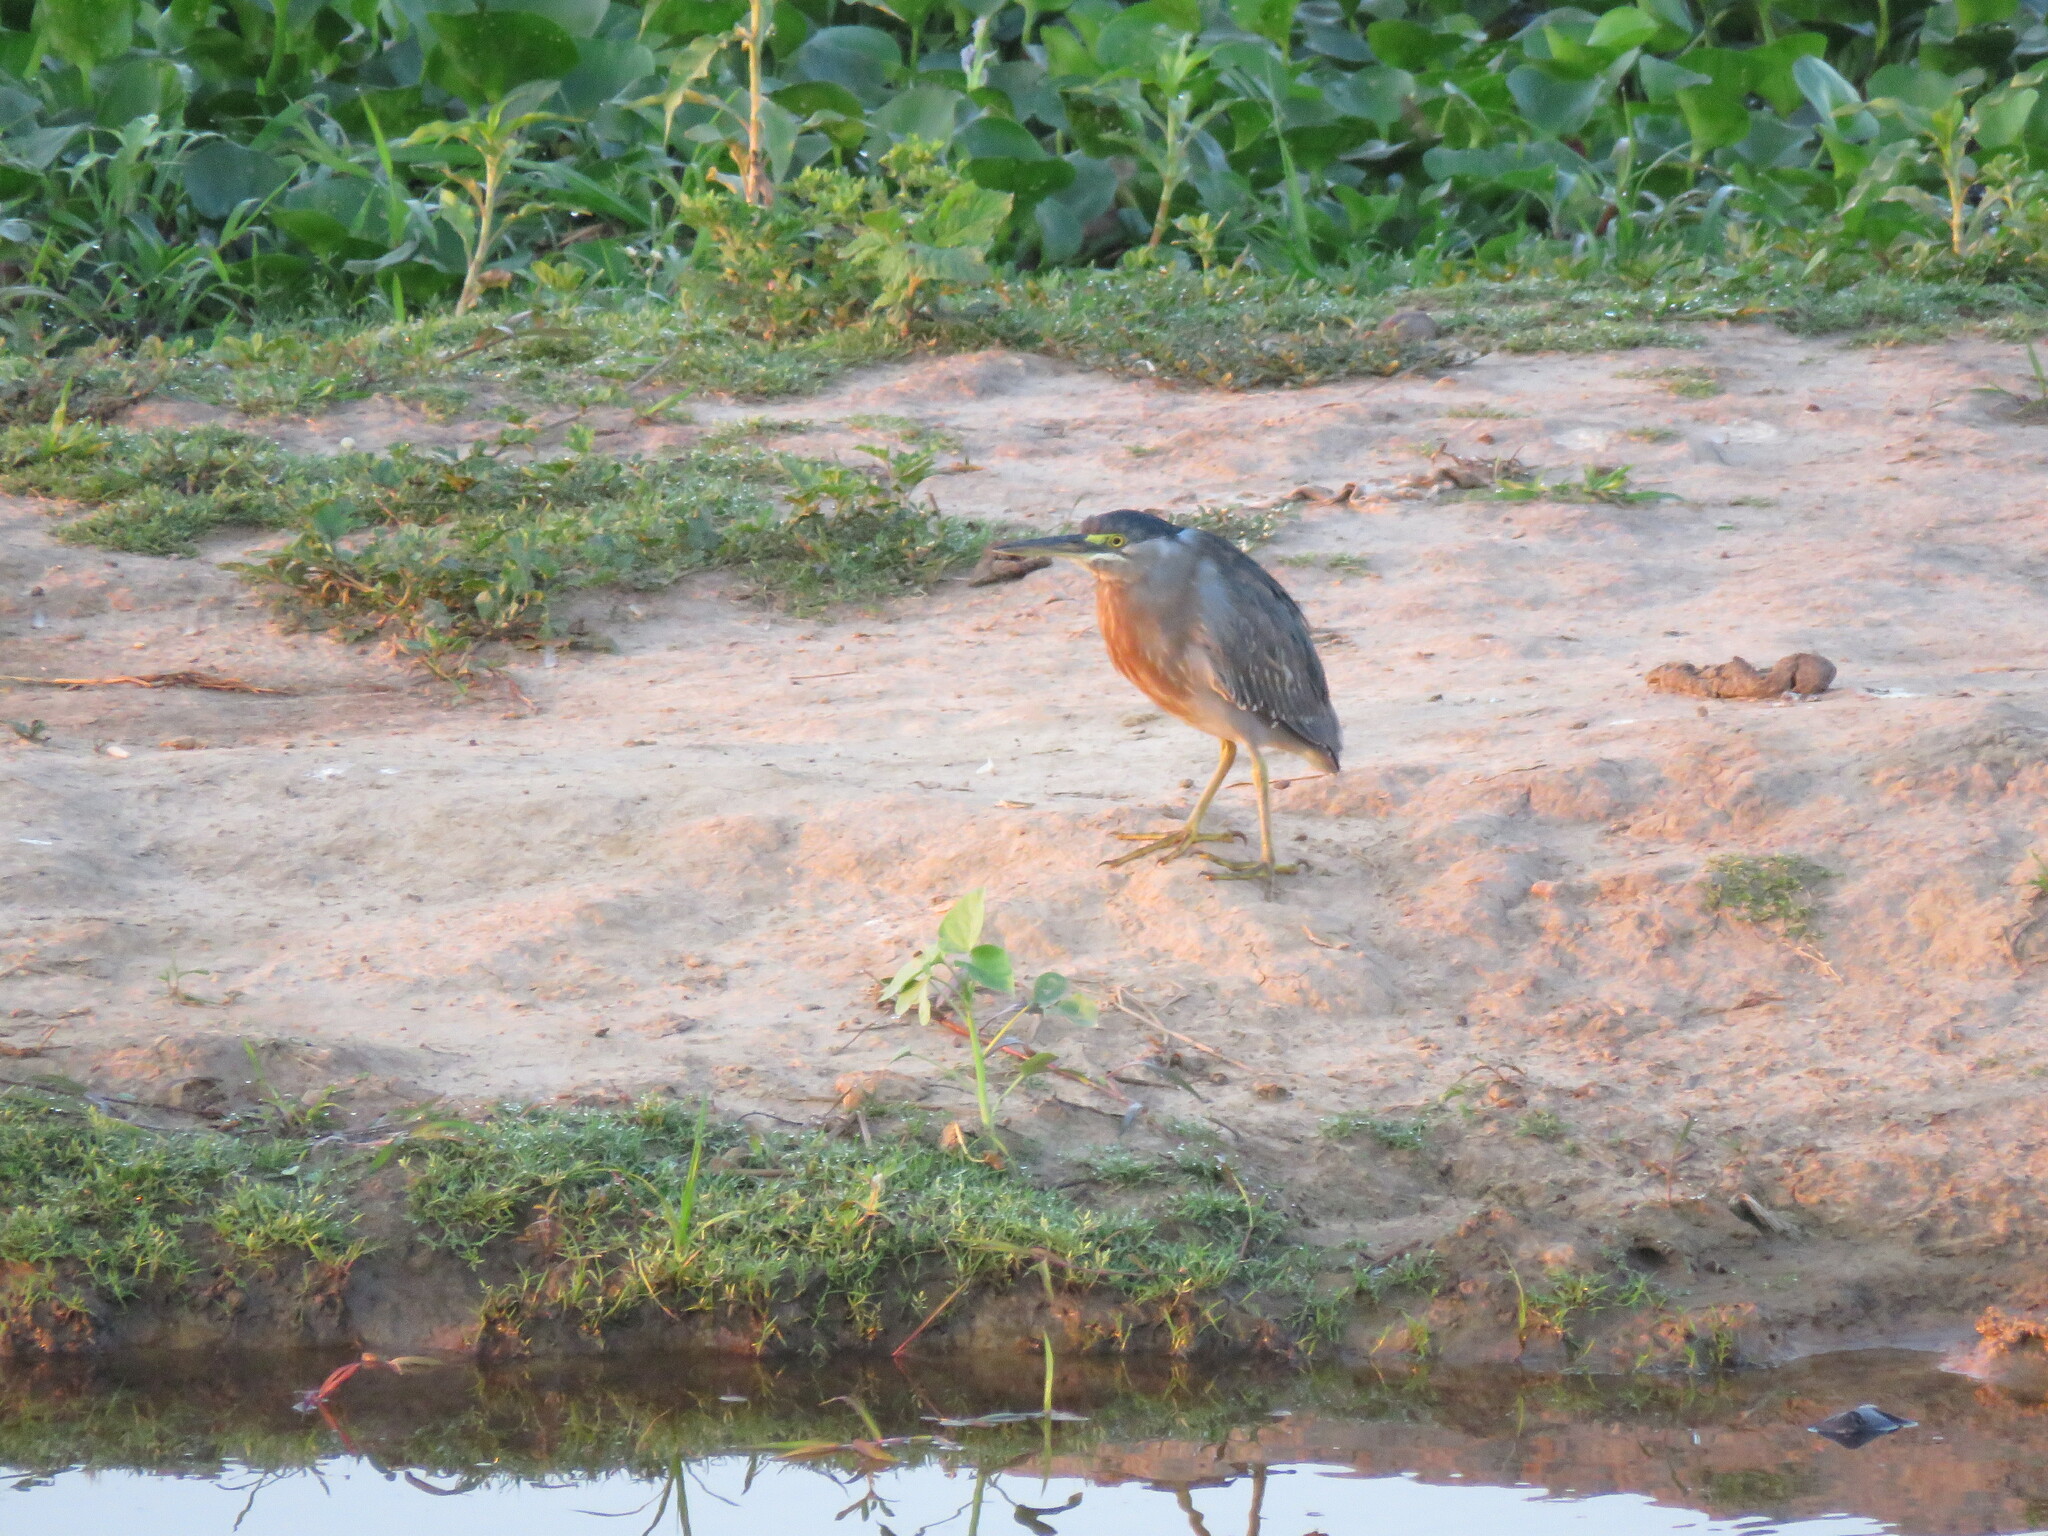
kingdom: Animalia
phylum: Chordata
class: Aves
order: Pelecaniformes
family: Ardeidae
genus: Butorides
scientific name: Butorides striata
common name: Striated heron
